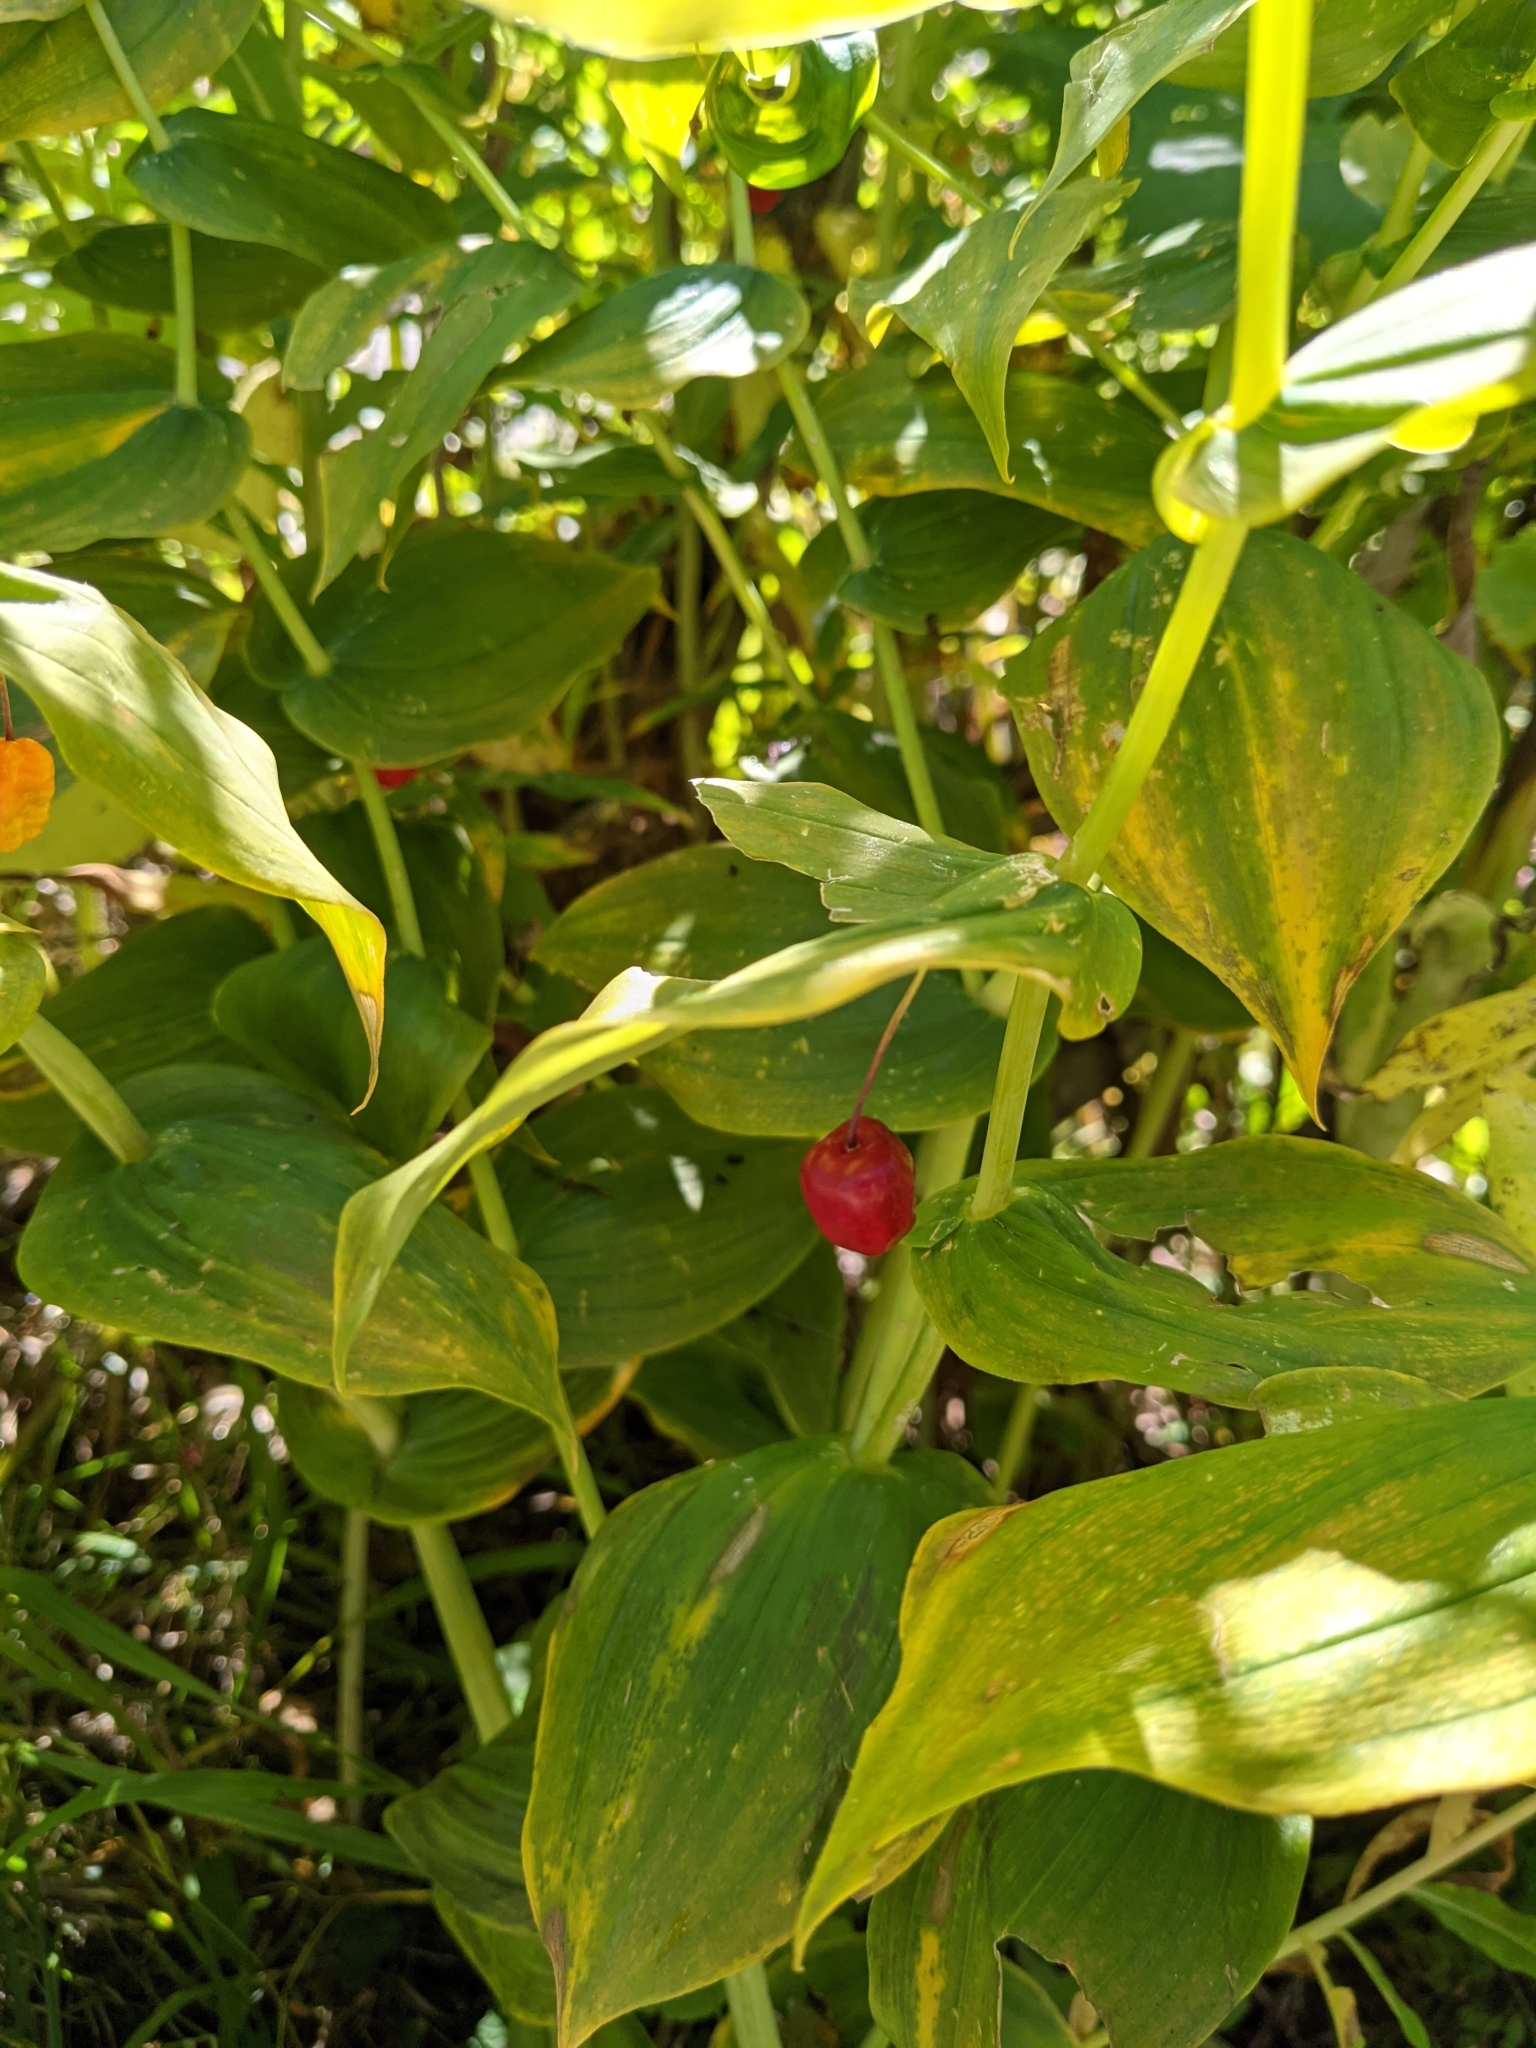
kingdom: Plantae
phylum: Tracheophyta
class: Liliopsida
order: Liliales
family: Liliaceae
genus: Streptopus
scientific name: Streptopus amplexifolius
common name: Clasp twisted stalk
